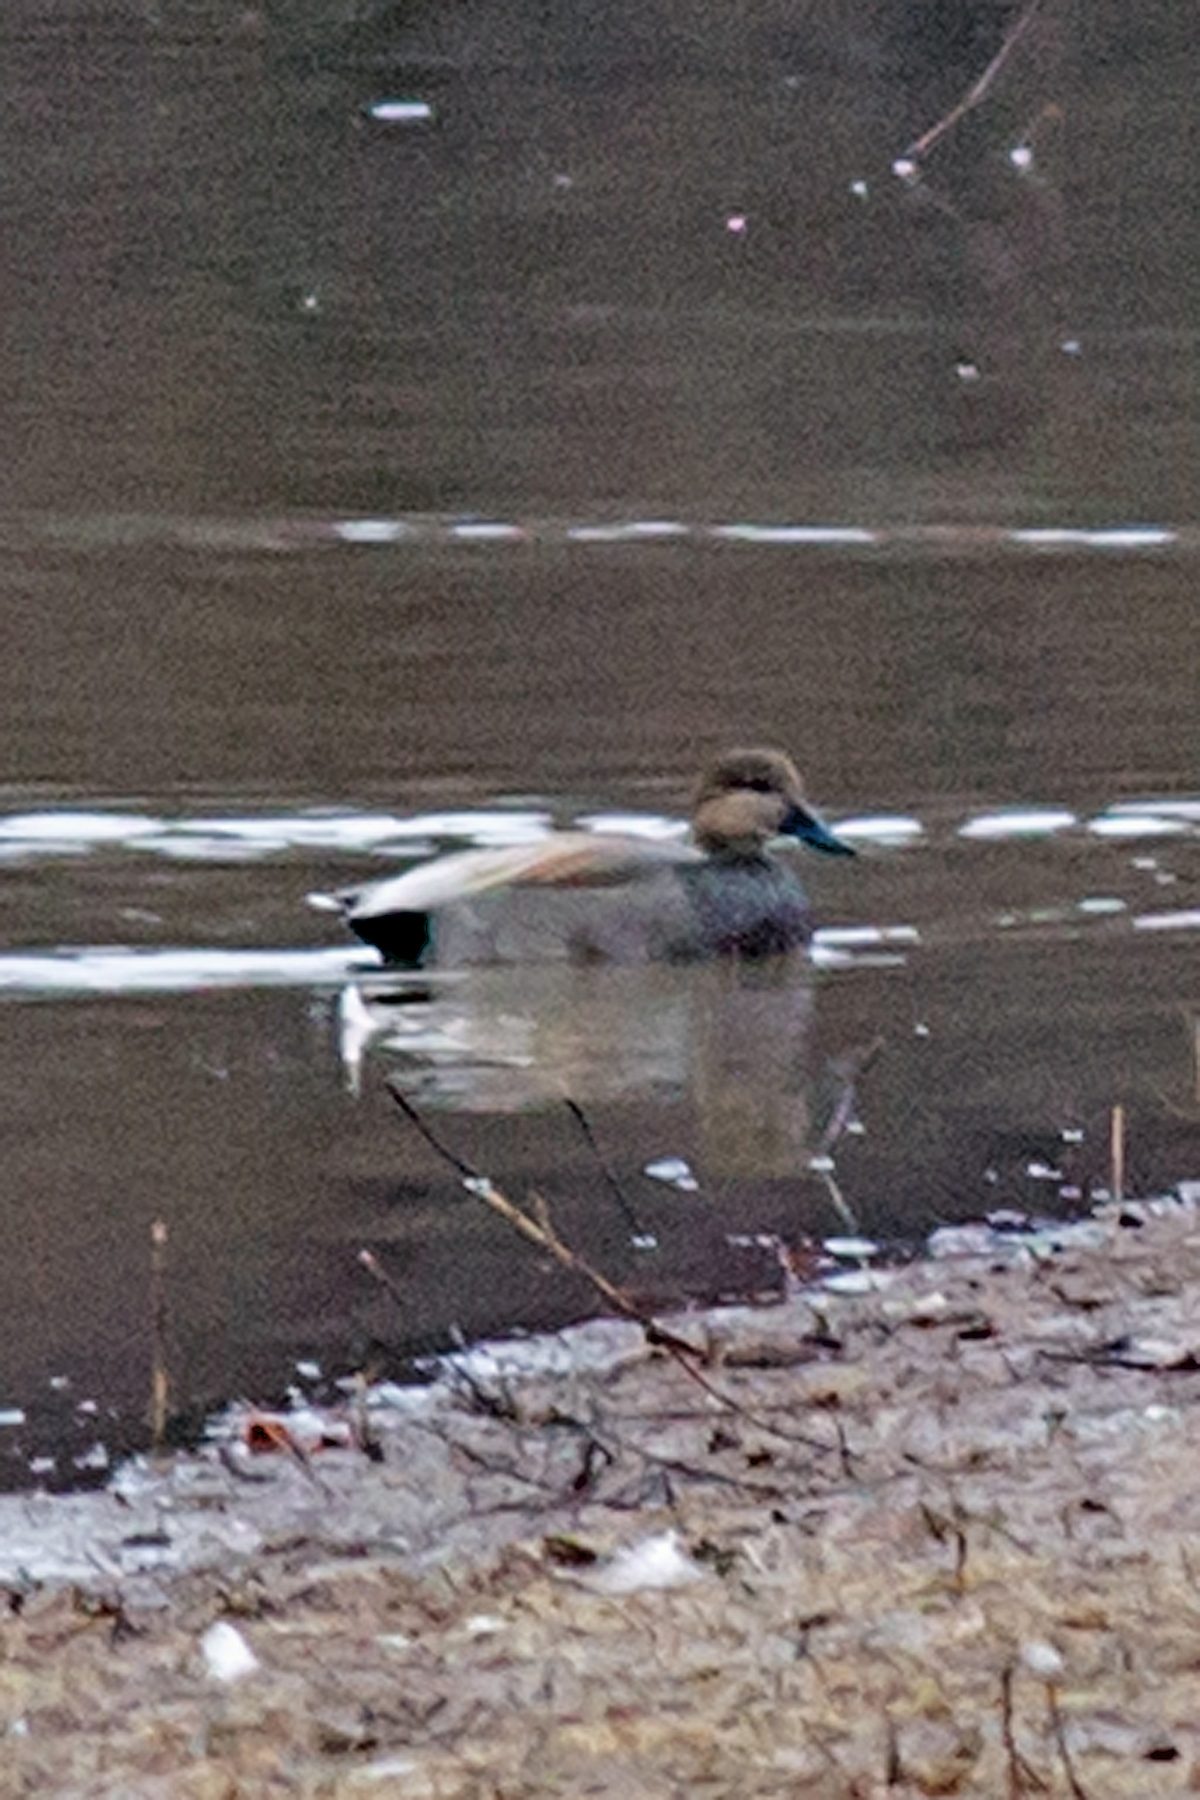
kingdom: Animalia
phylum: Chordata
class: Aves
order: Anseriformes
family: Anatidae
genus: Mareca
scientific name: Mareca strepera
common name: Gadwall
